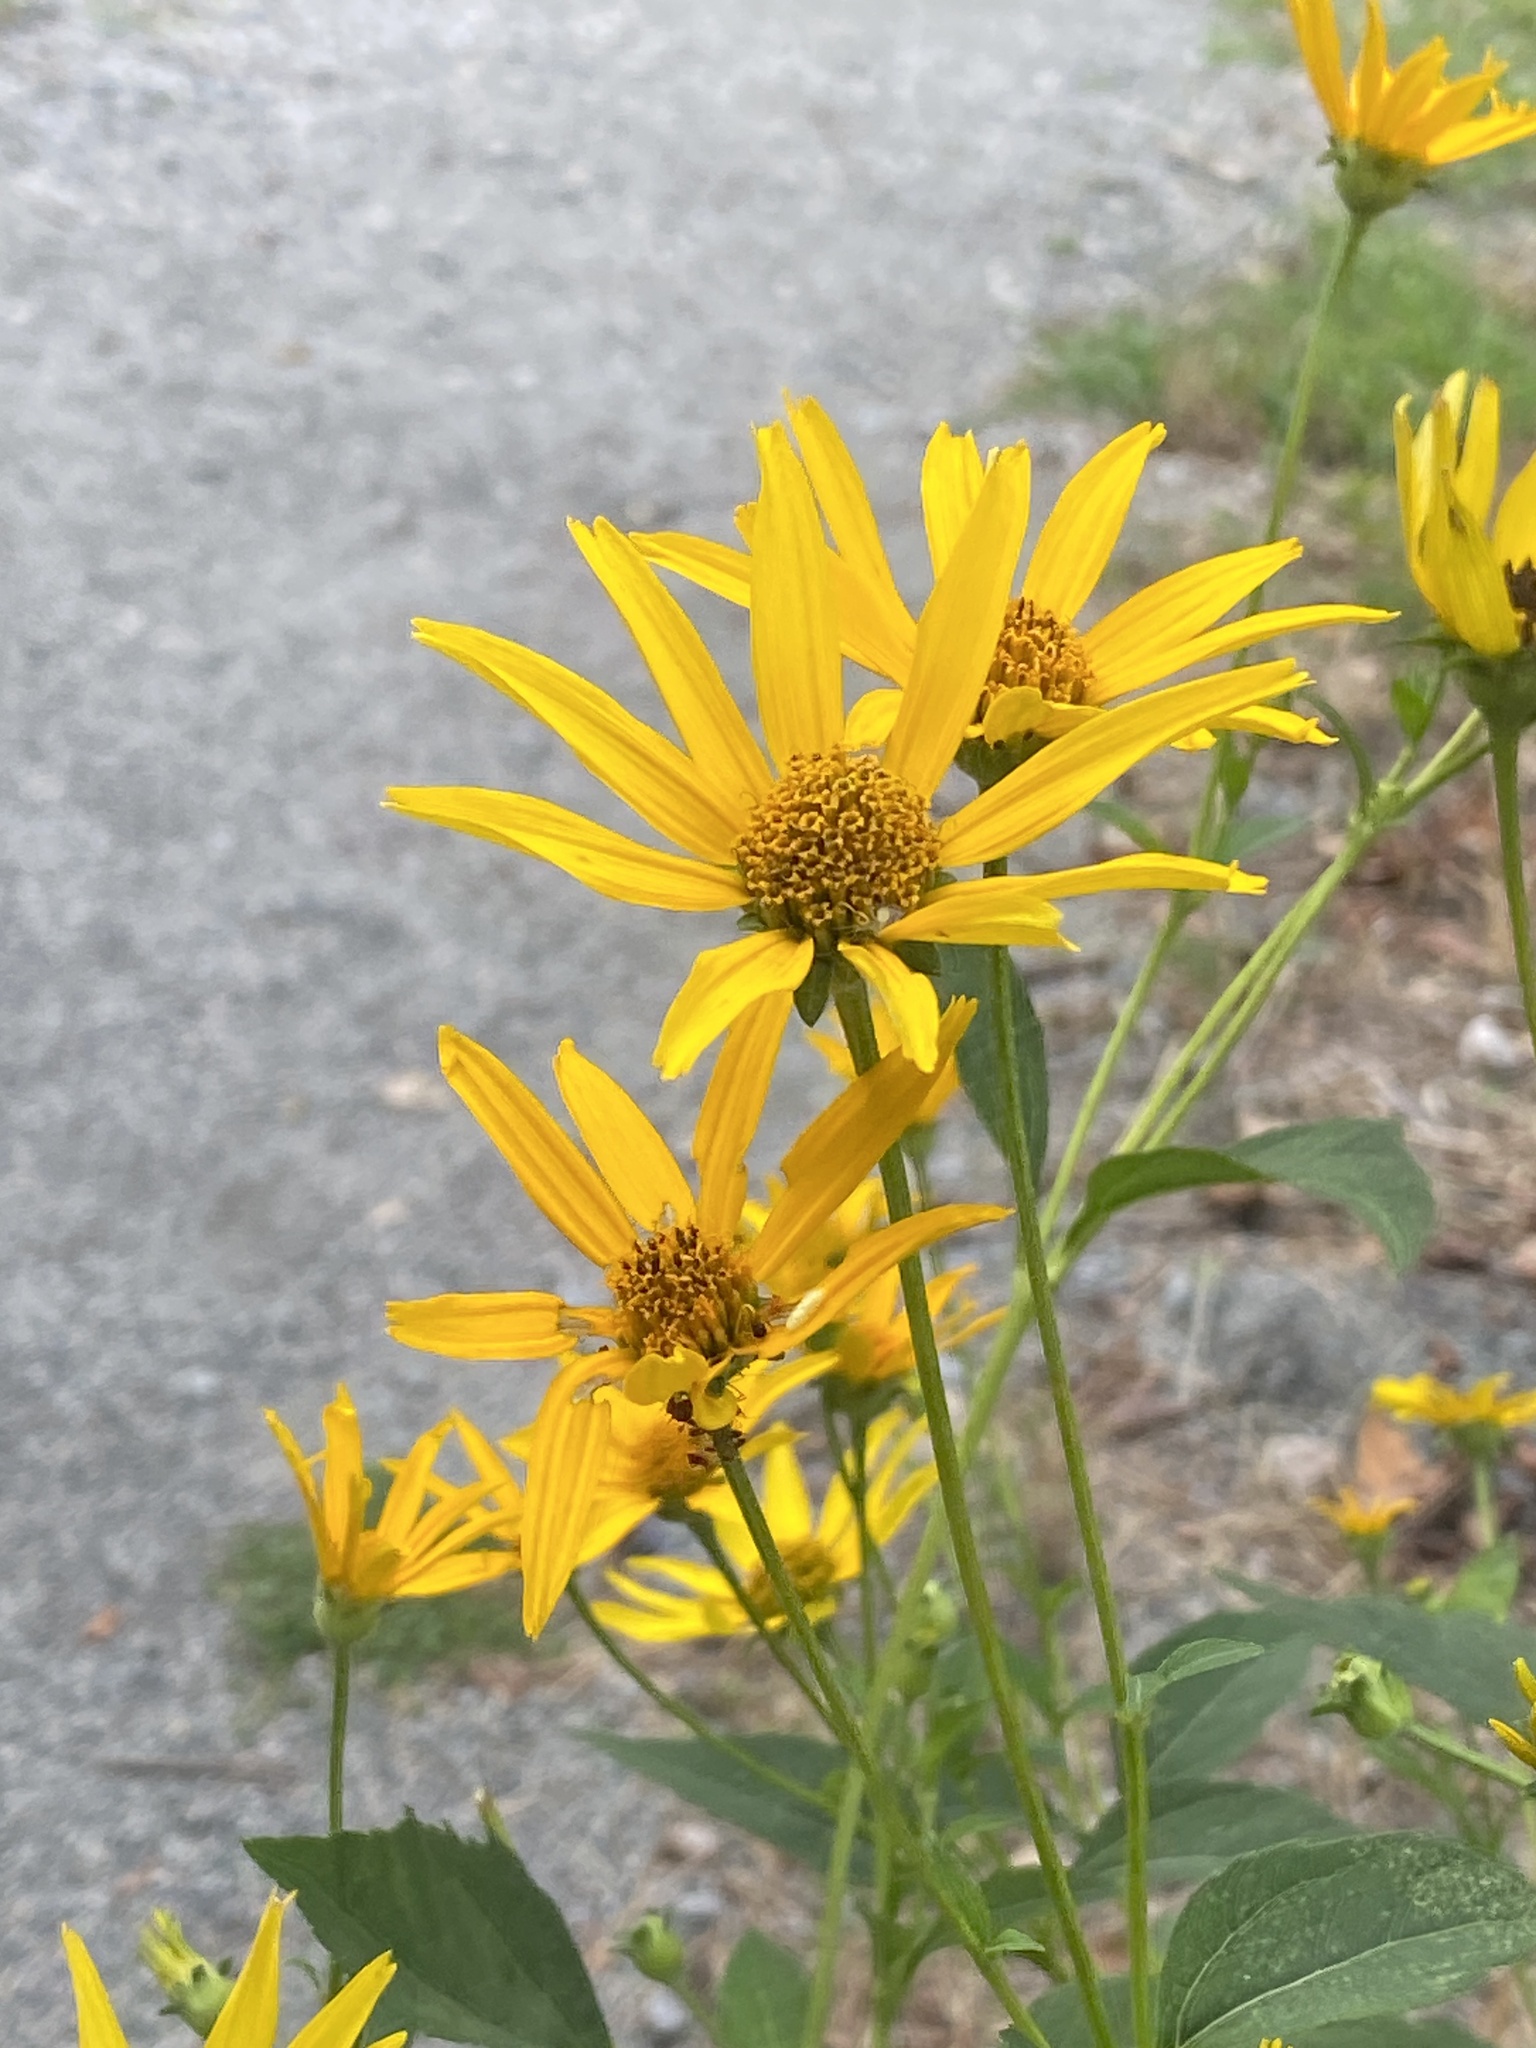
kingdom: Plantae
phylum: Tracheophyta
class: Magnoliopsida
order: Asterales
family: Asteraceae
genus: Heliopsis
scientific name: Heliopsis helianthoides
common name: False sunflower
